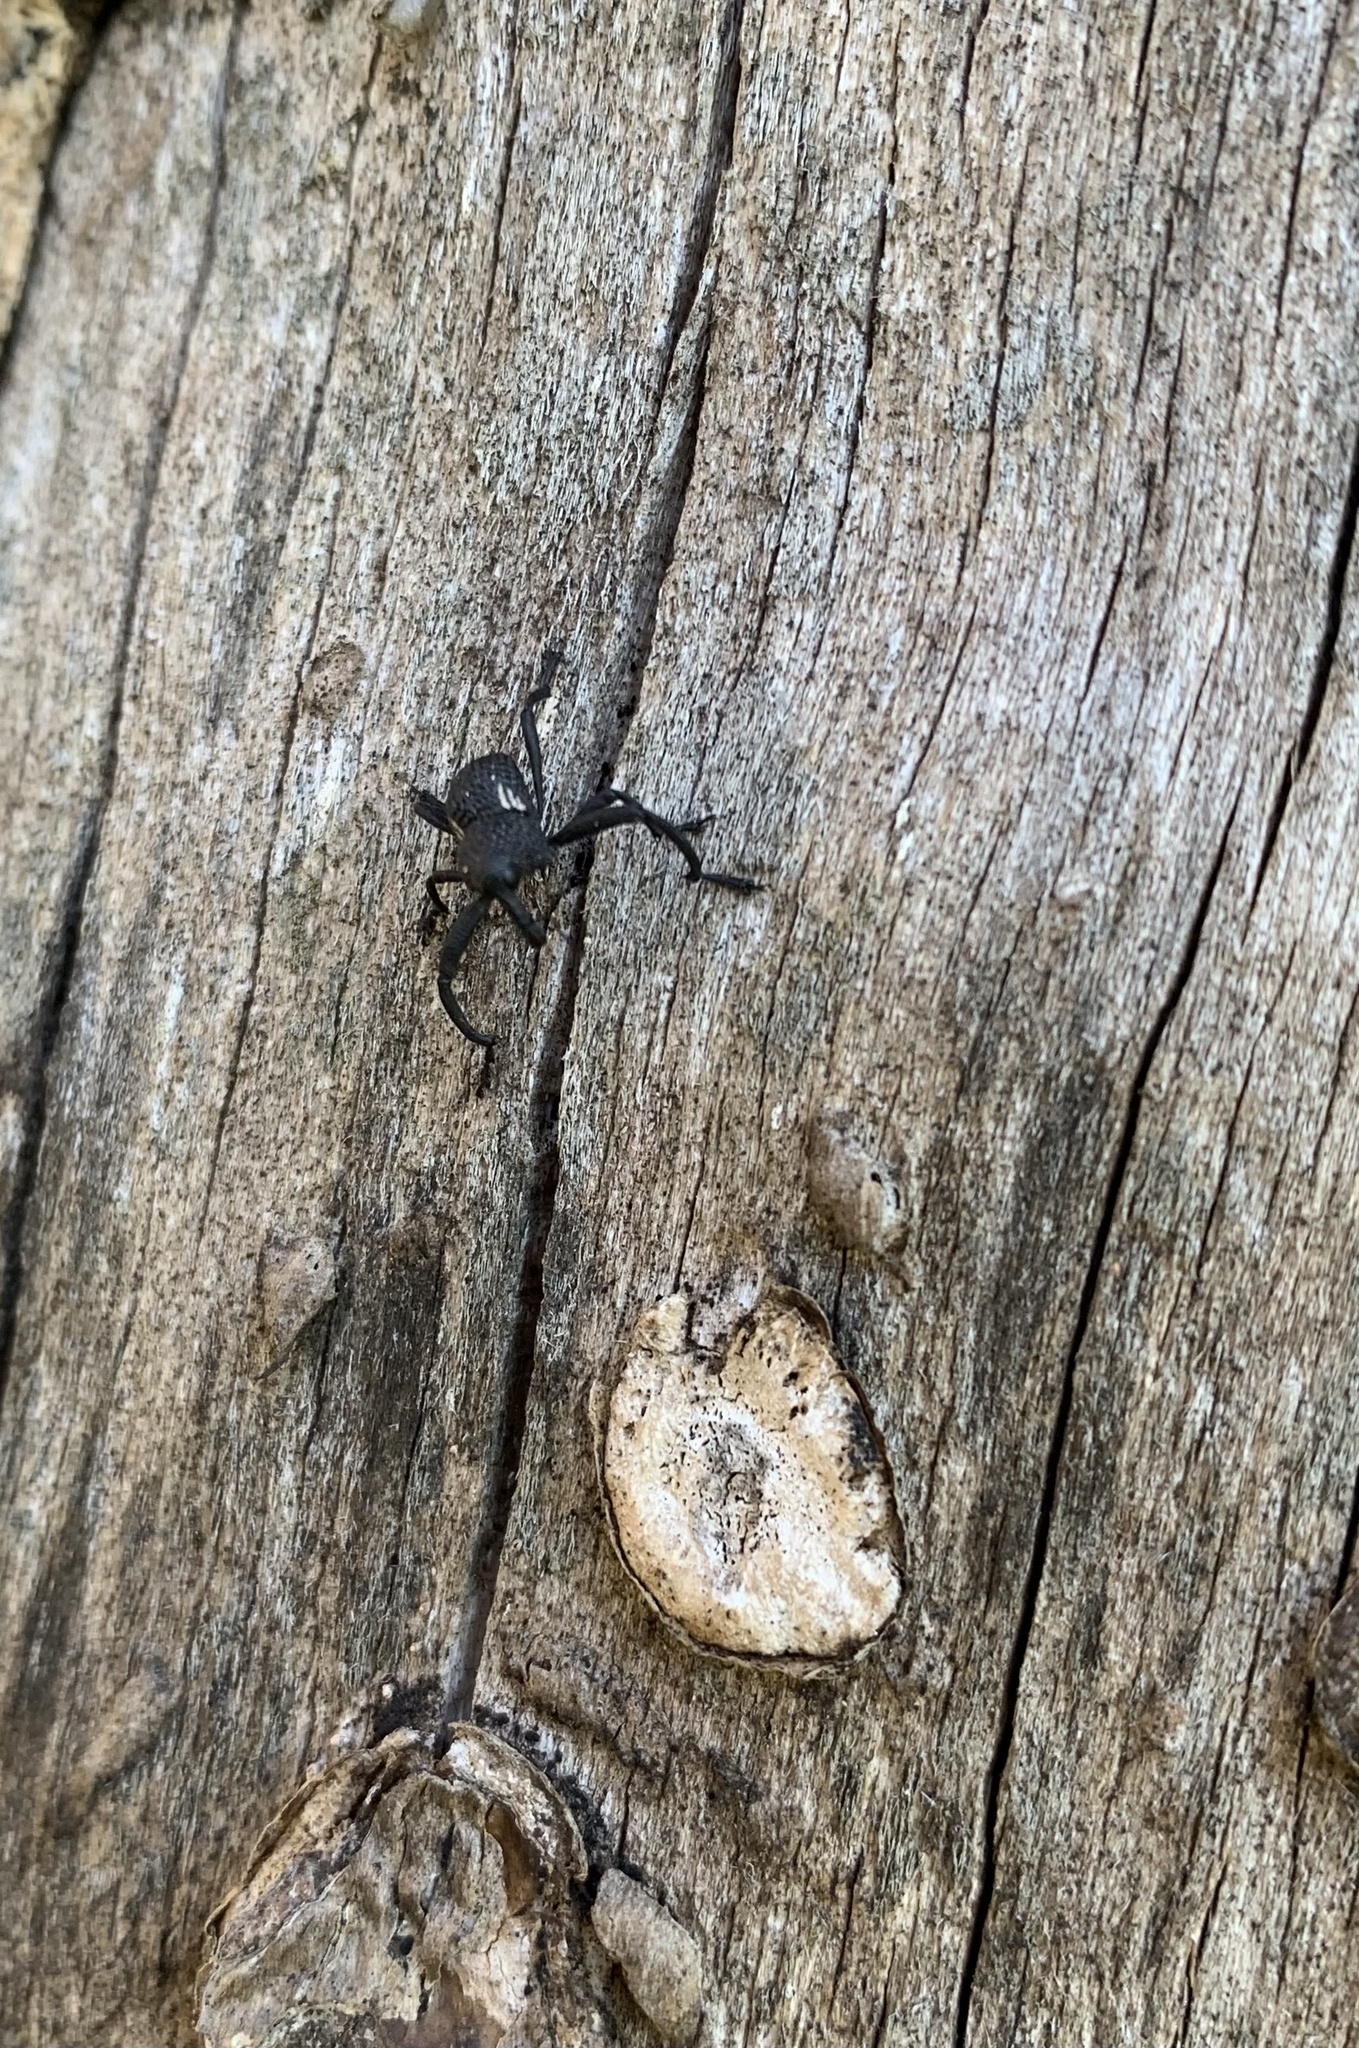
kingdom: Animalia
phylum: Arthropoda
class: Insecta
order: Coleoptera
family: Curculionidae
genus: Rhyephenes
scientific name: Rhyephenes humeralis
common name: Araè±ita chilena del pino
